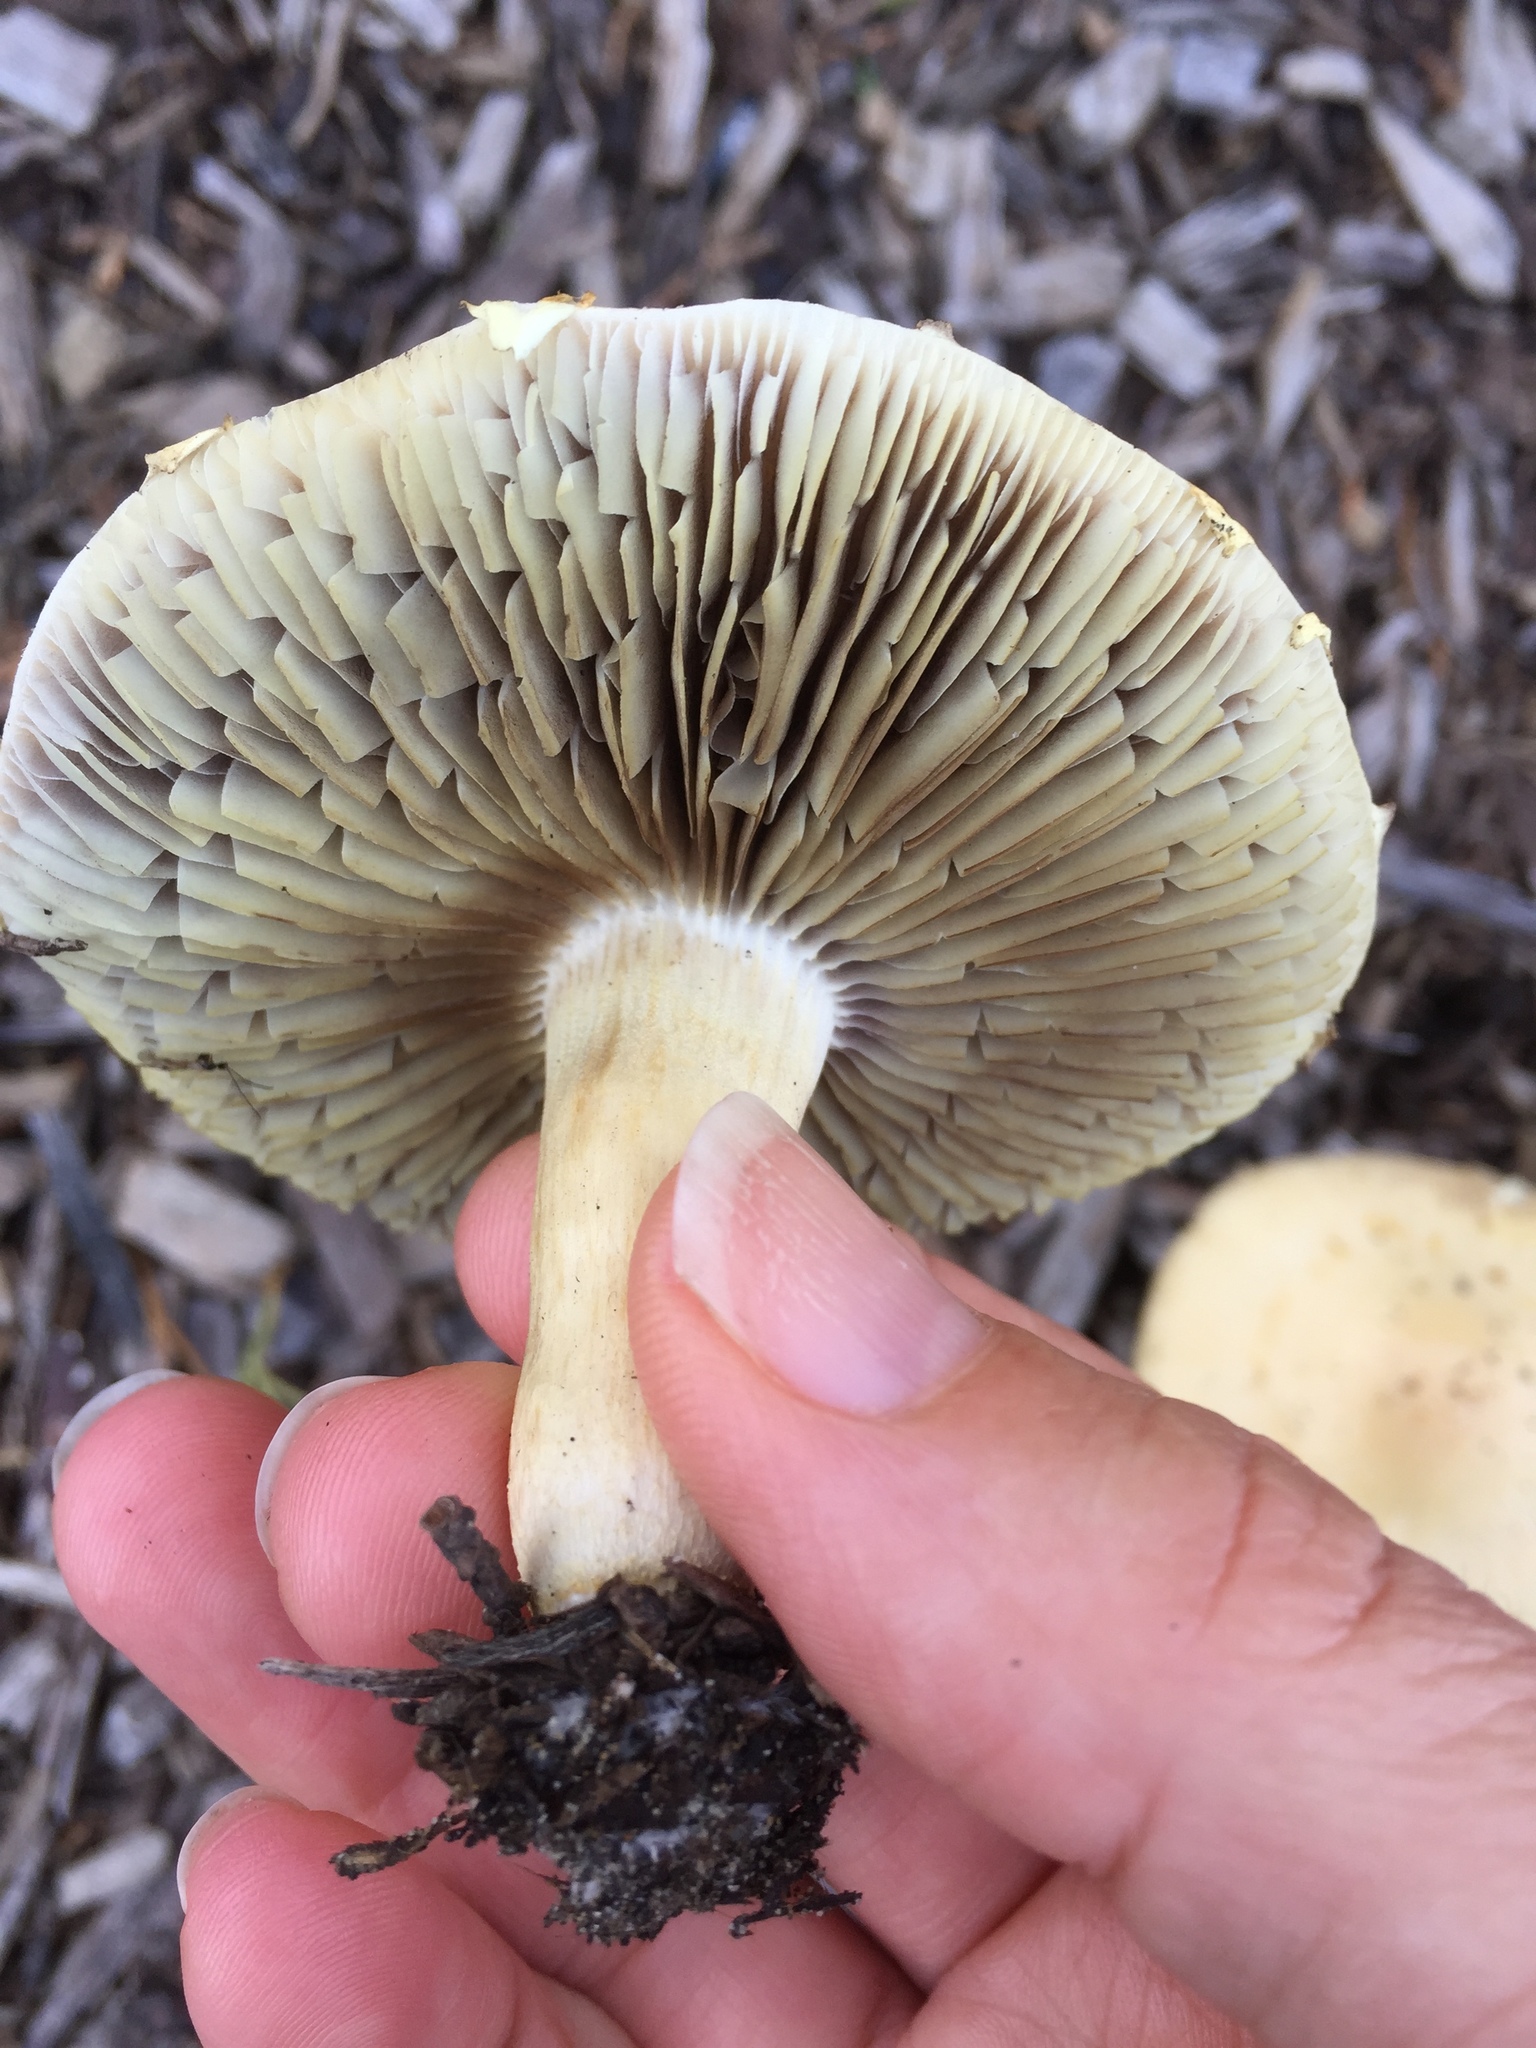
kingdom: Fungi
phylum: Basidiomycota
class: Agaricomycetes
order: Agaricales
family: Strophariaceae
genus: Agrocybe
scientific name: Agrocybe putaminum
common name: Mulch fieldcap
